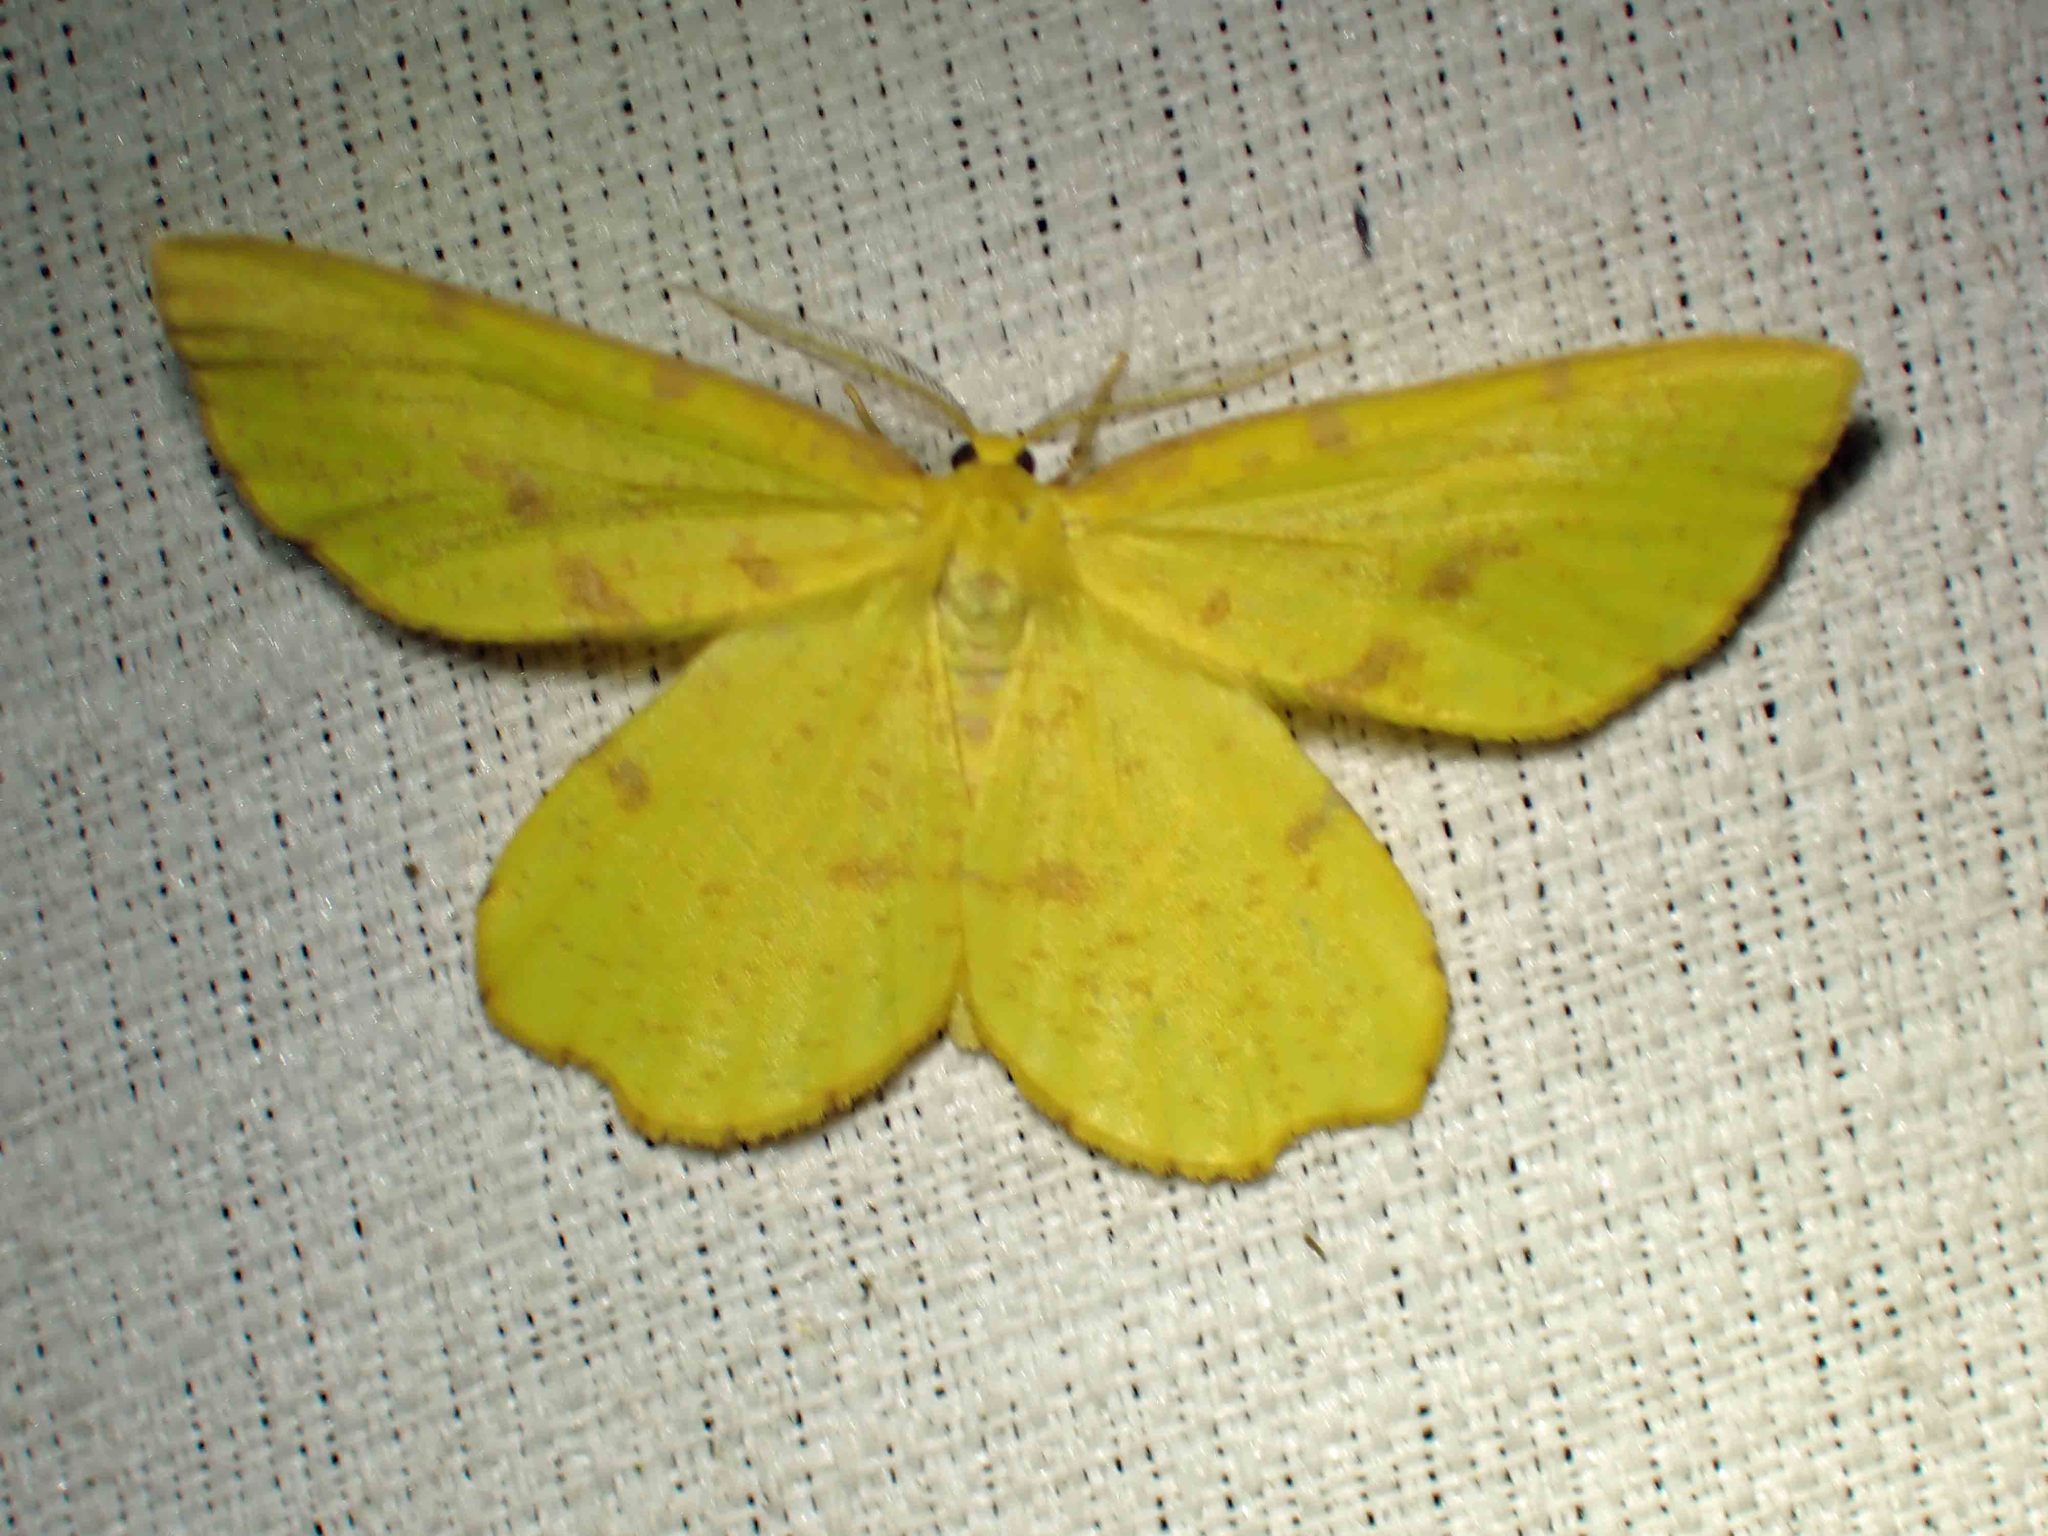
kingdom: Animalia
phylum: Arthropoda
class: Insecta
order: Lepidoptera
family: Geometridae
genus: Xanthotype
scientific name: Xanthotype
